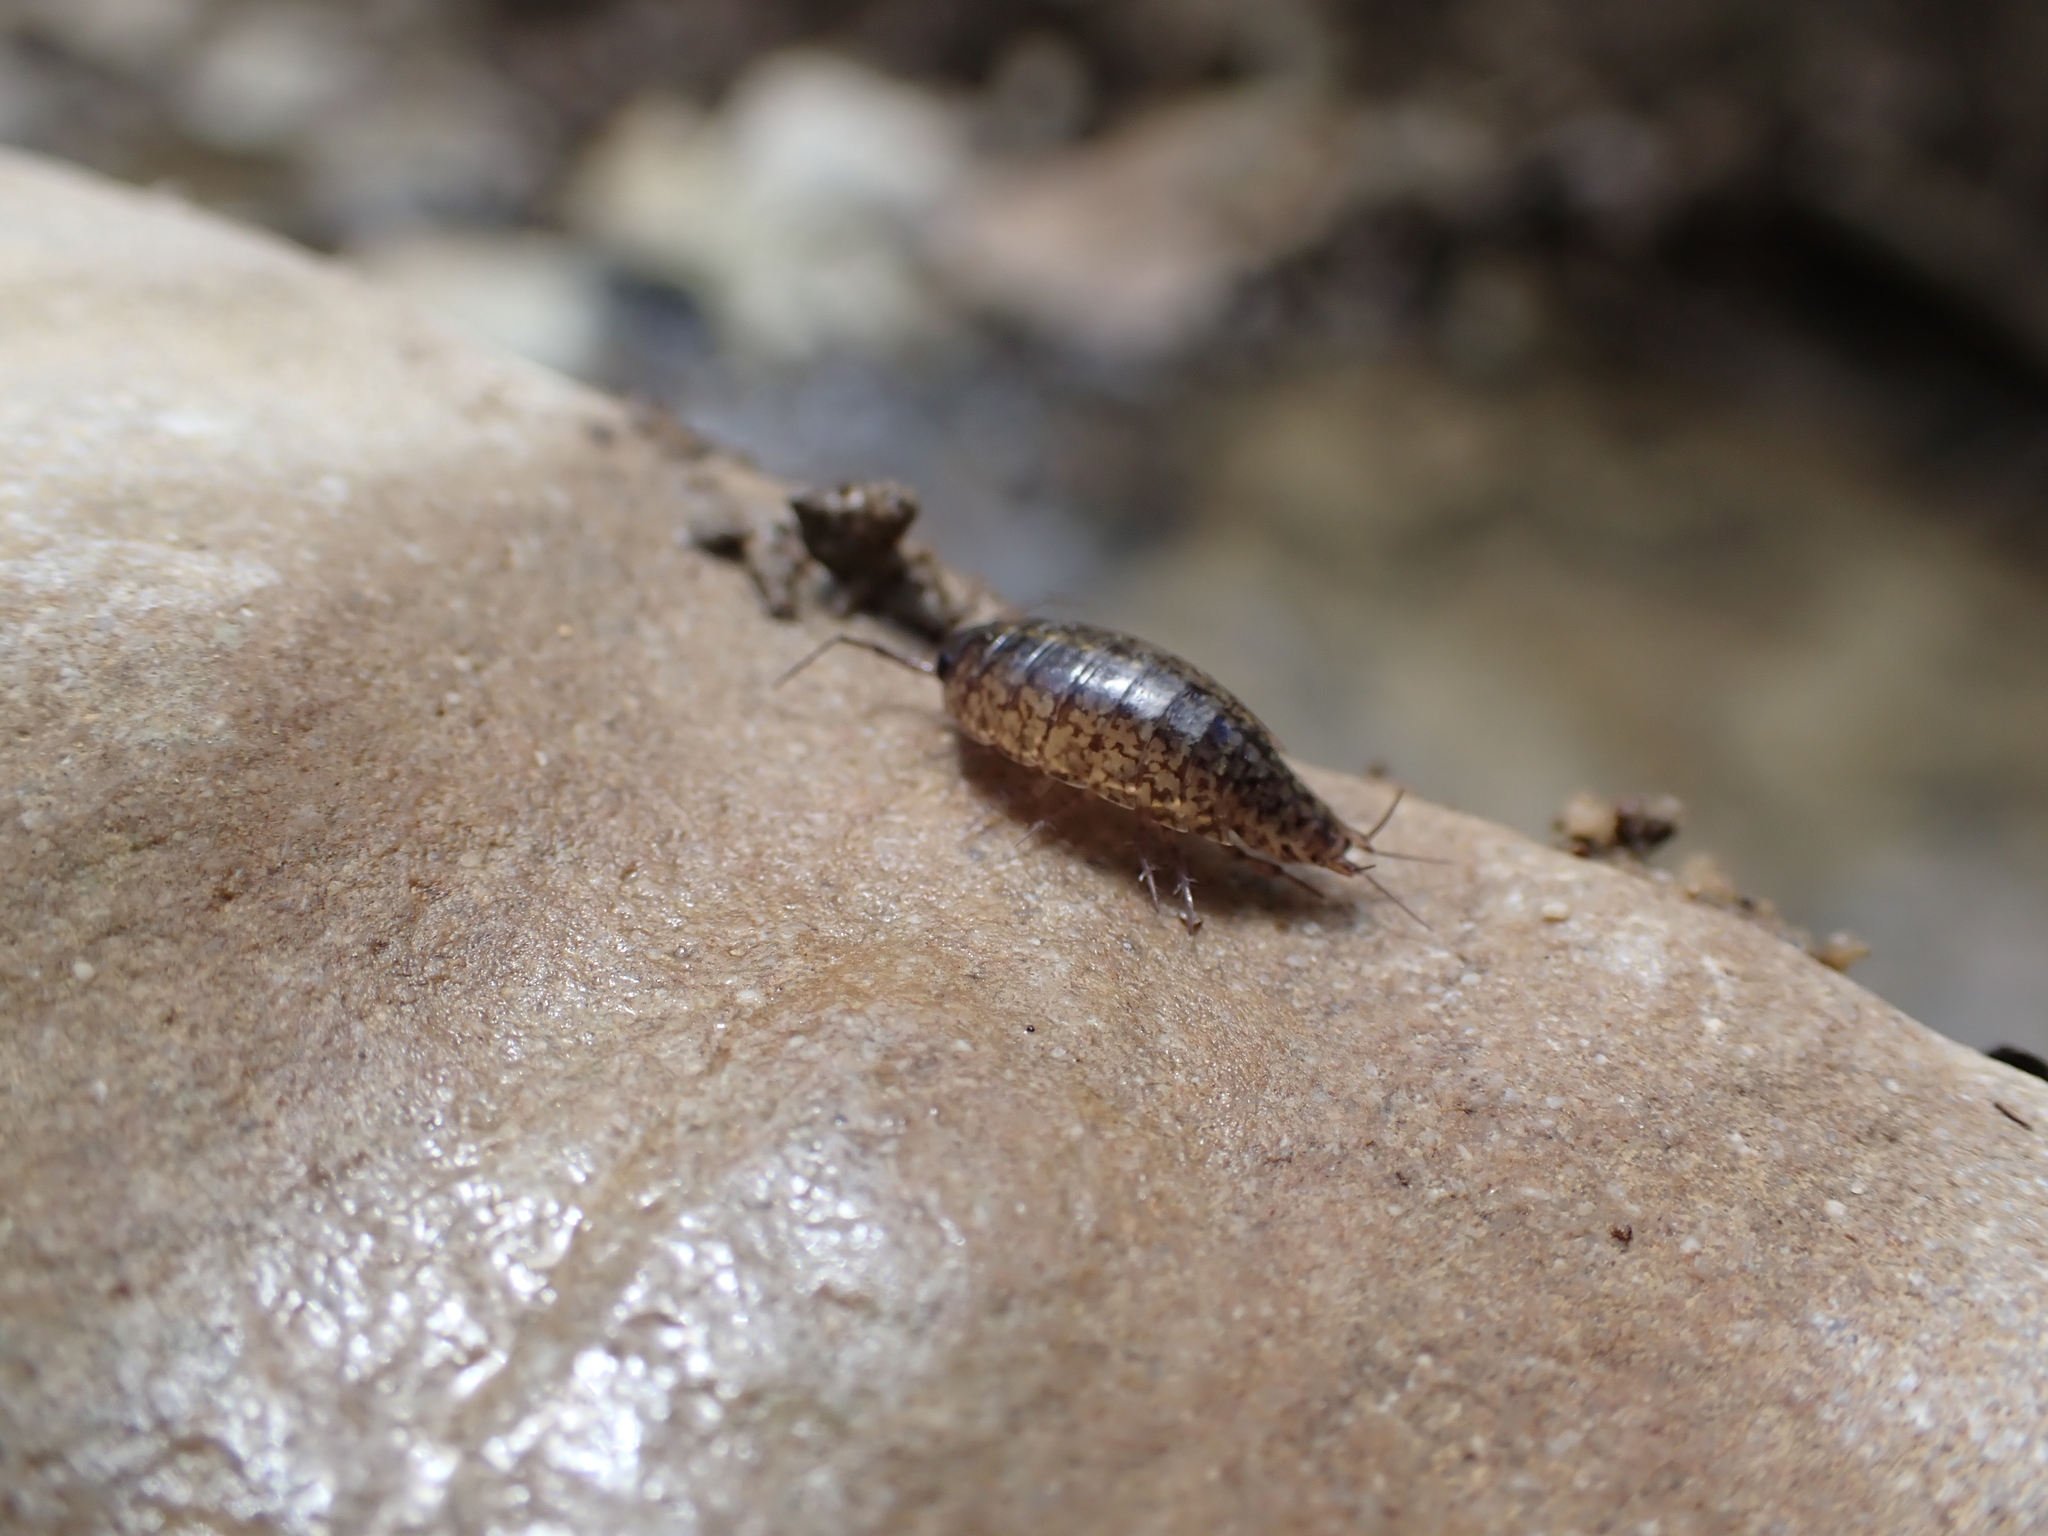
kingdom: Animalia
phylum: Arthropoda
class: Malacostraca
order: Isopoda
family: Ligiidae
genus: Ligidium
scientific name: Ligidium elrodii
